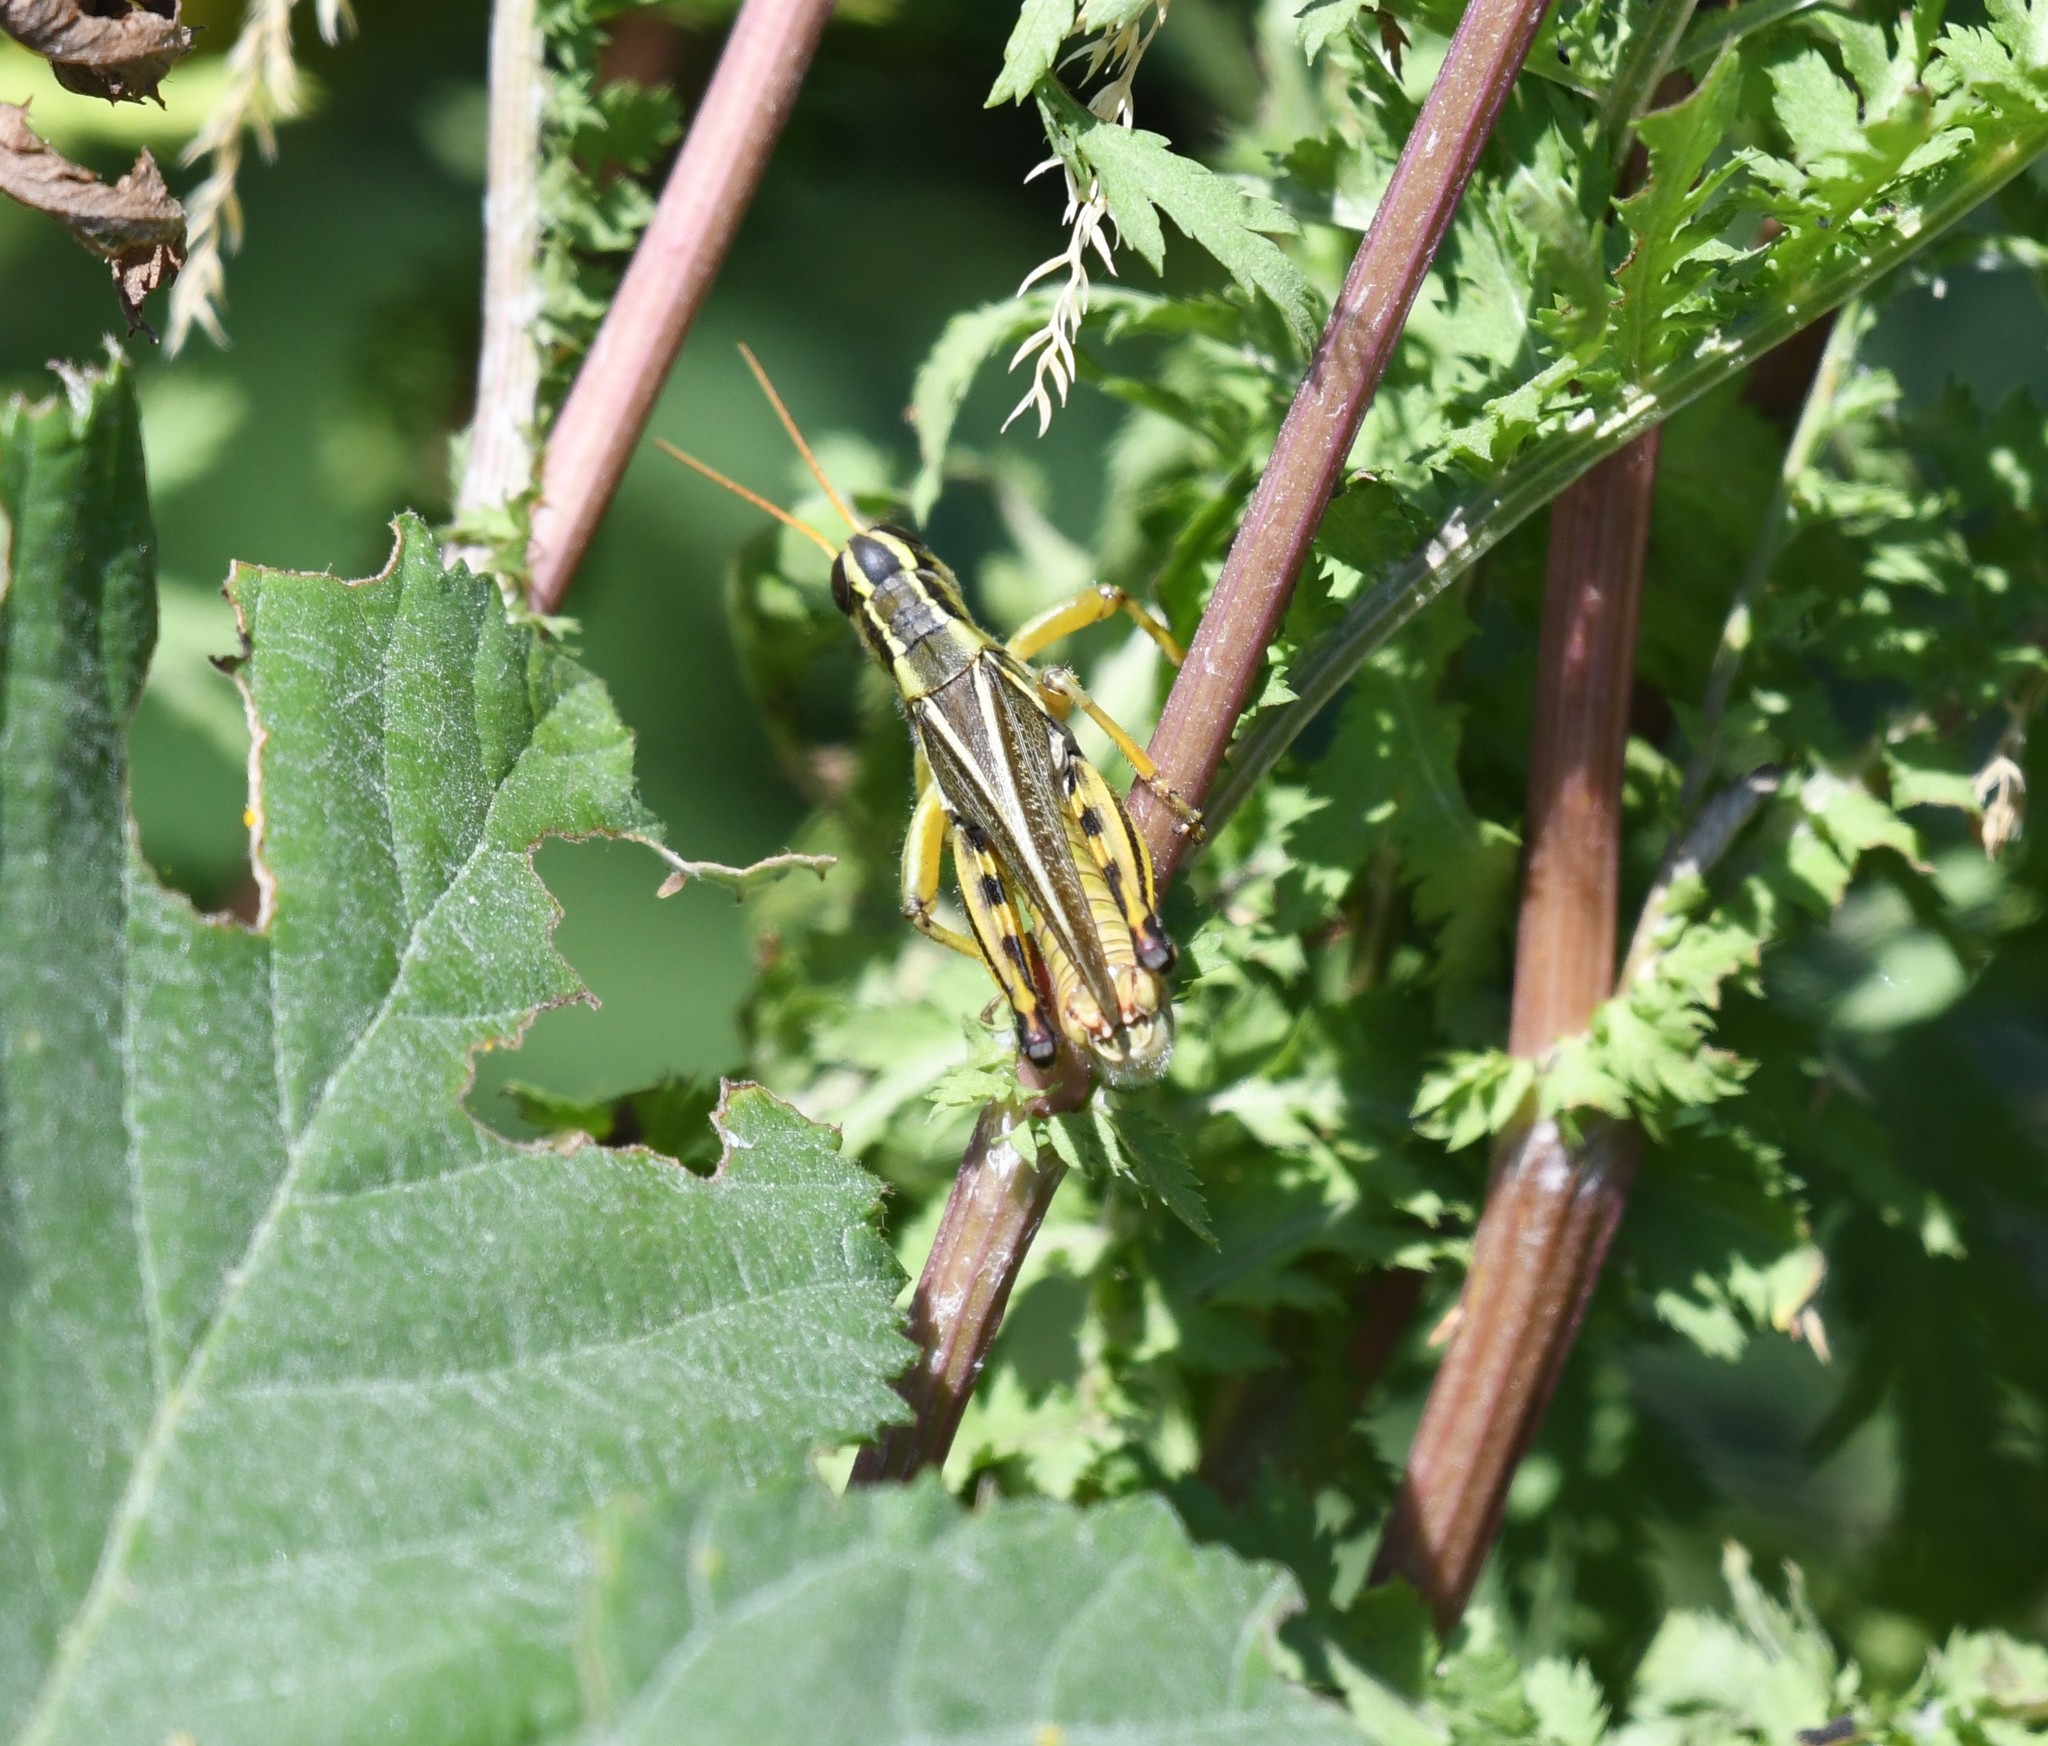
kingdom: Animalia
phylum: Arthropoda
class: Insecta
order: Orthoptera
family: Acrididae
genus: Melanoplus
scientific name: Melanoplus bivittatus
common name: Two-striped grasshopper
